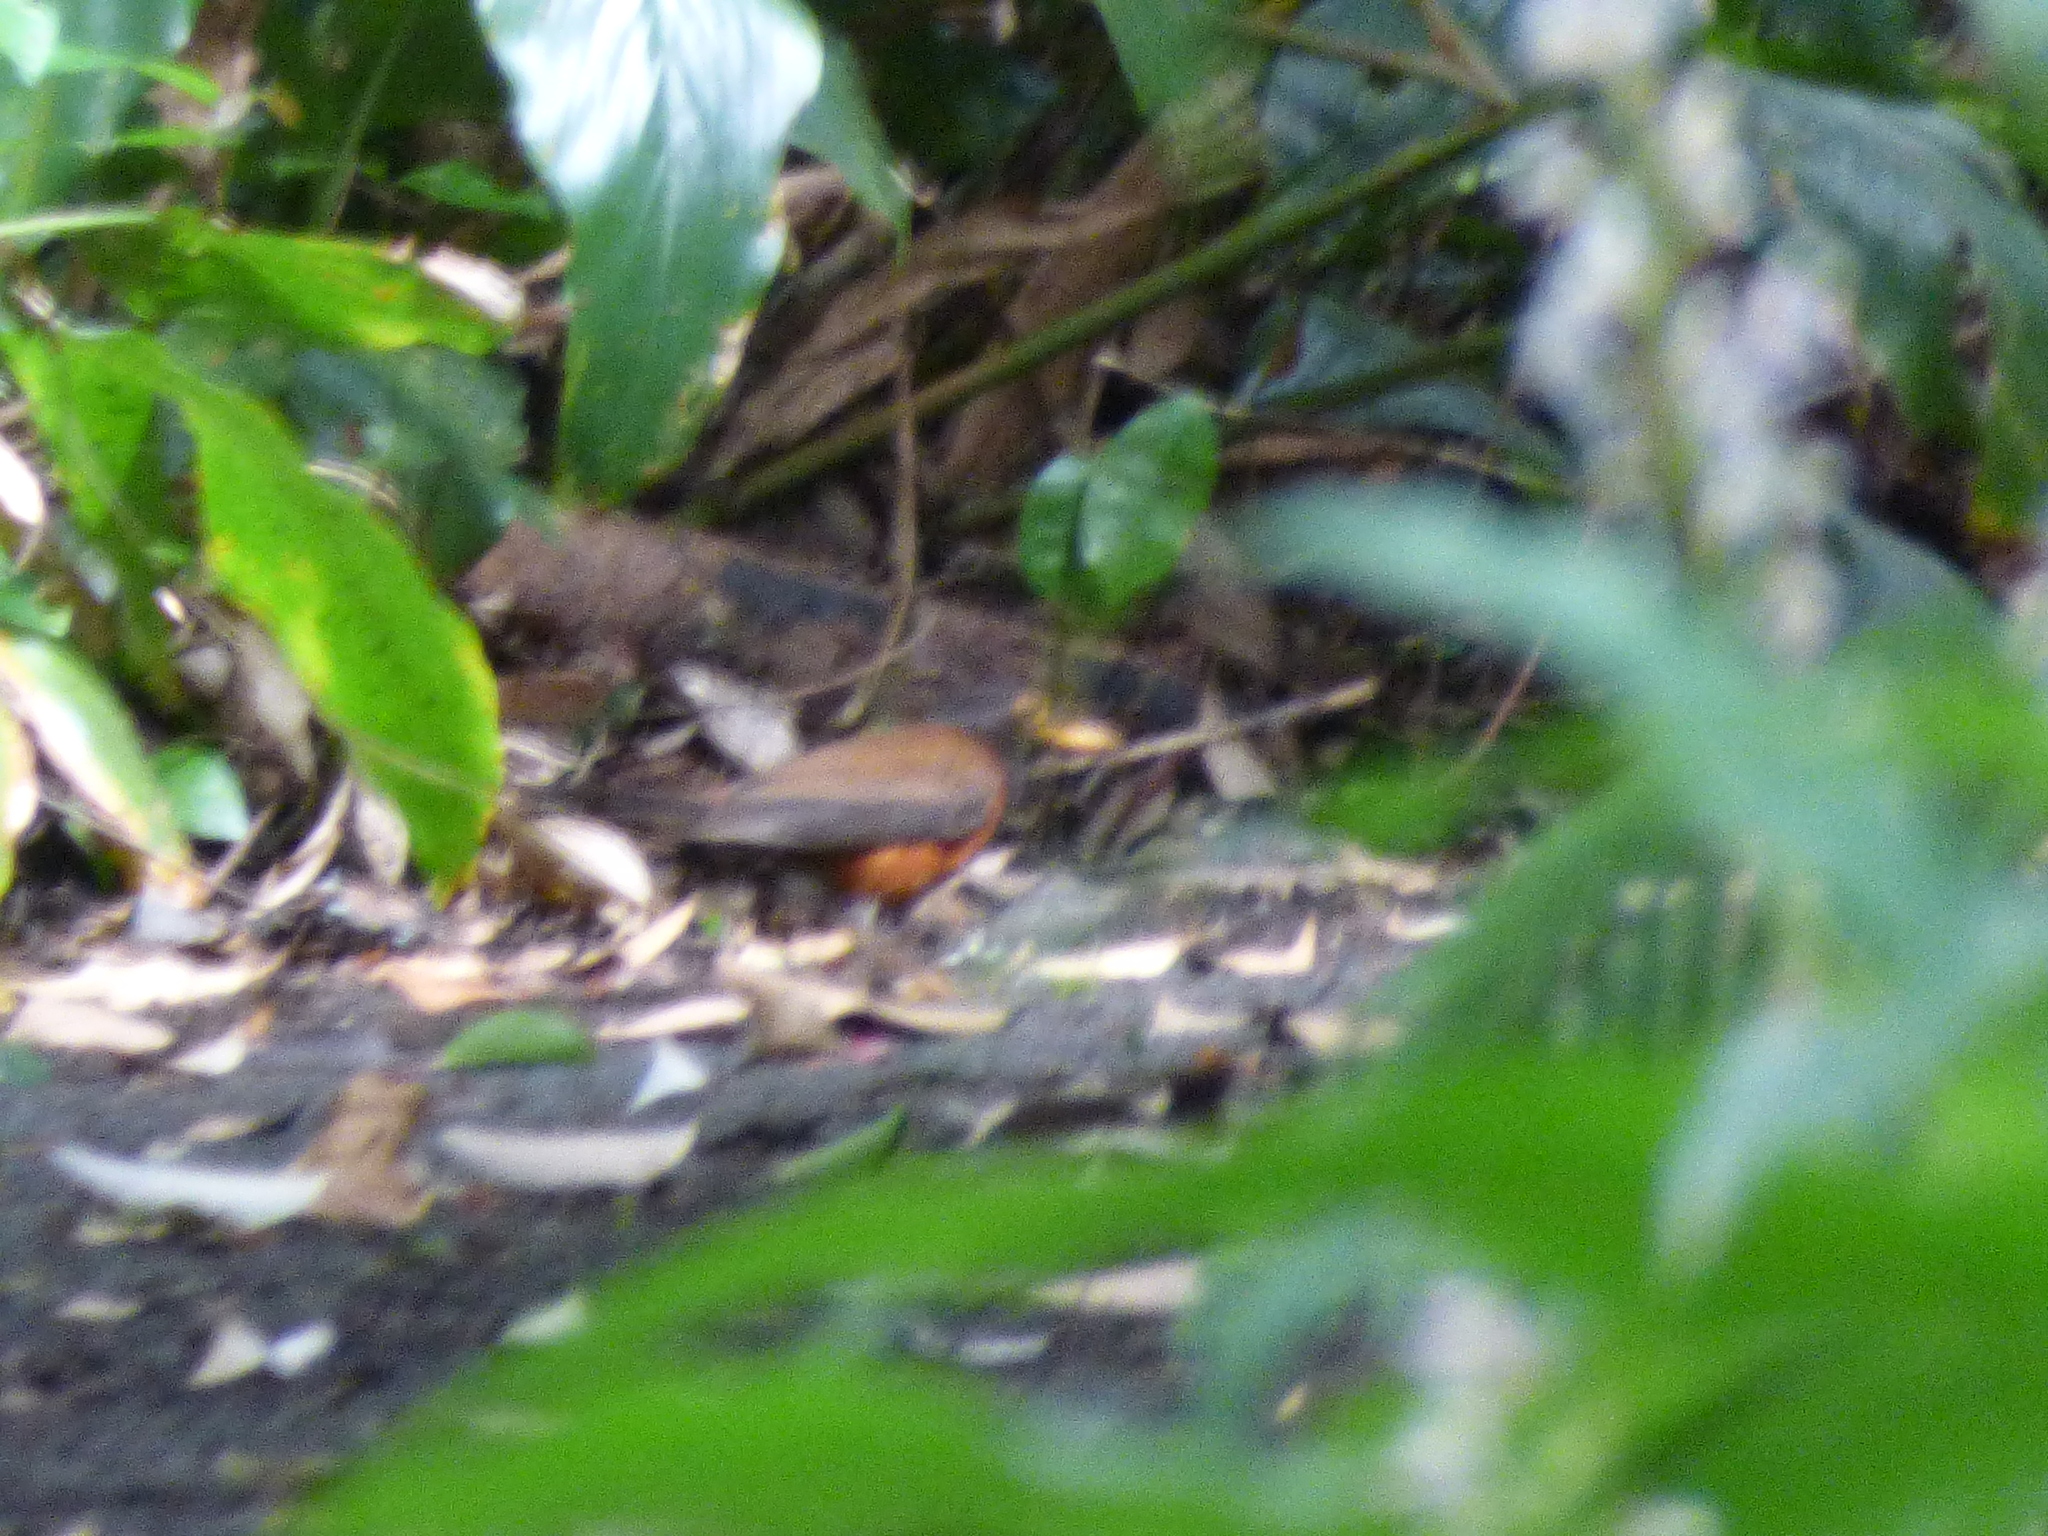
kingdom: Animalia
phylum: Chordata
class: Aves
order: Passeriformes
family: Turdidae
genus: Turdus
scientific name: Turdus celaenops
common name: Izu thrush
